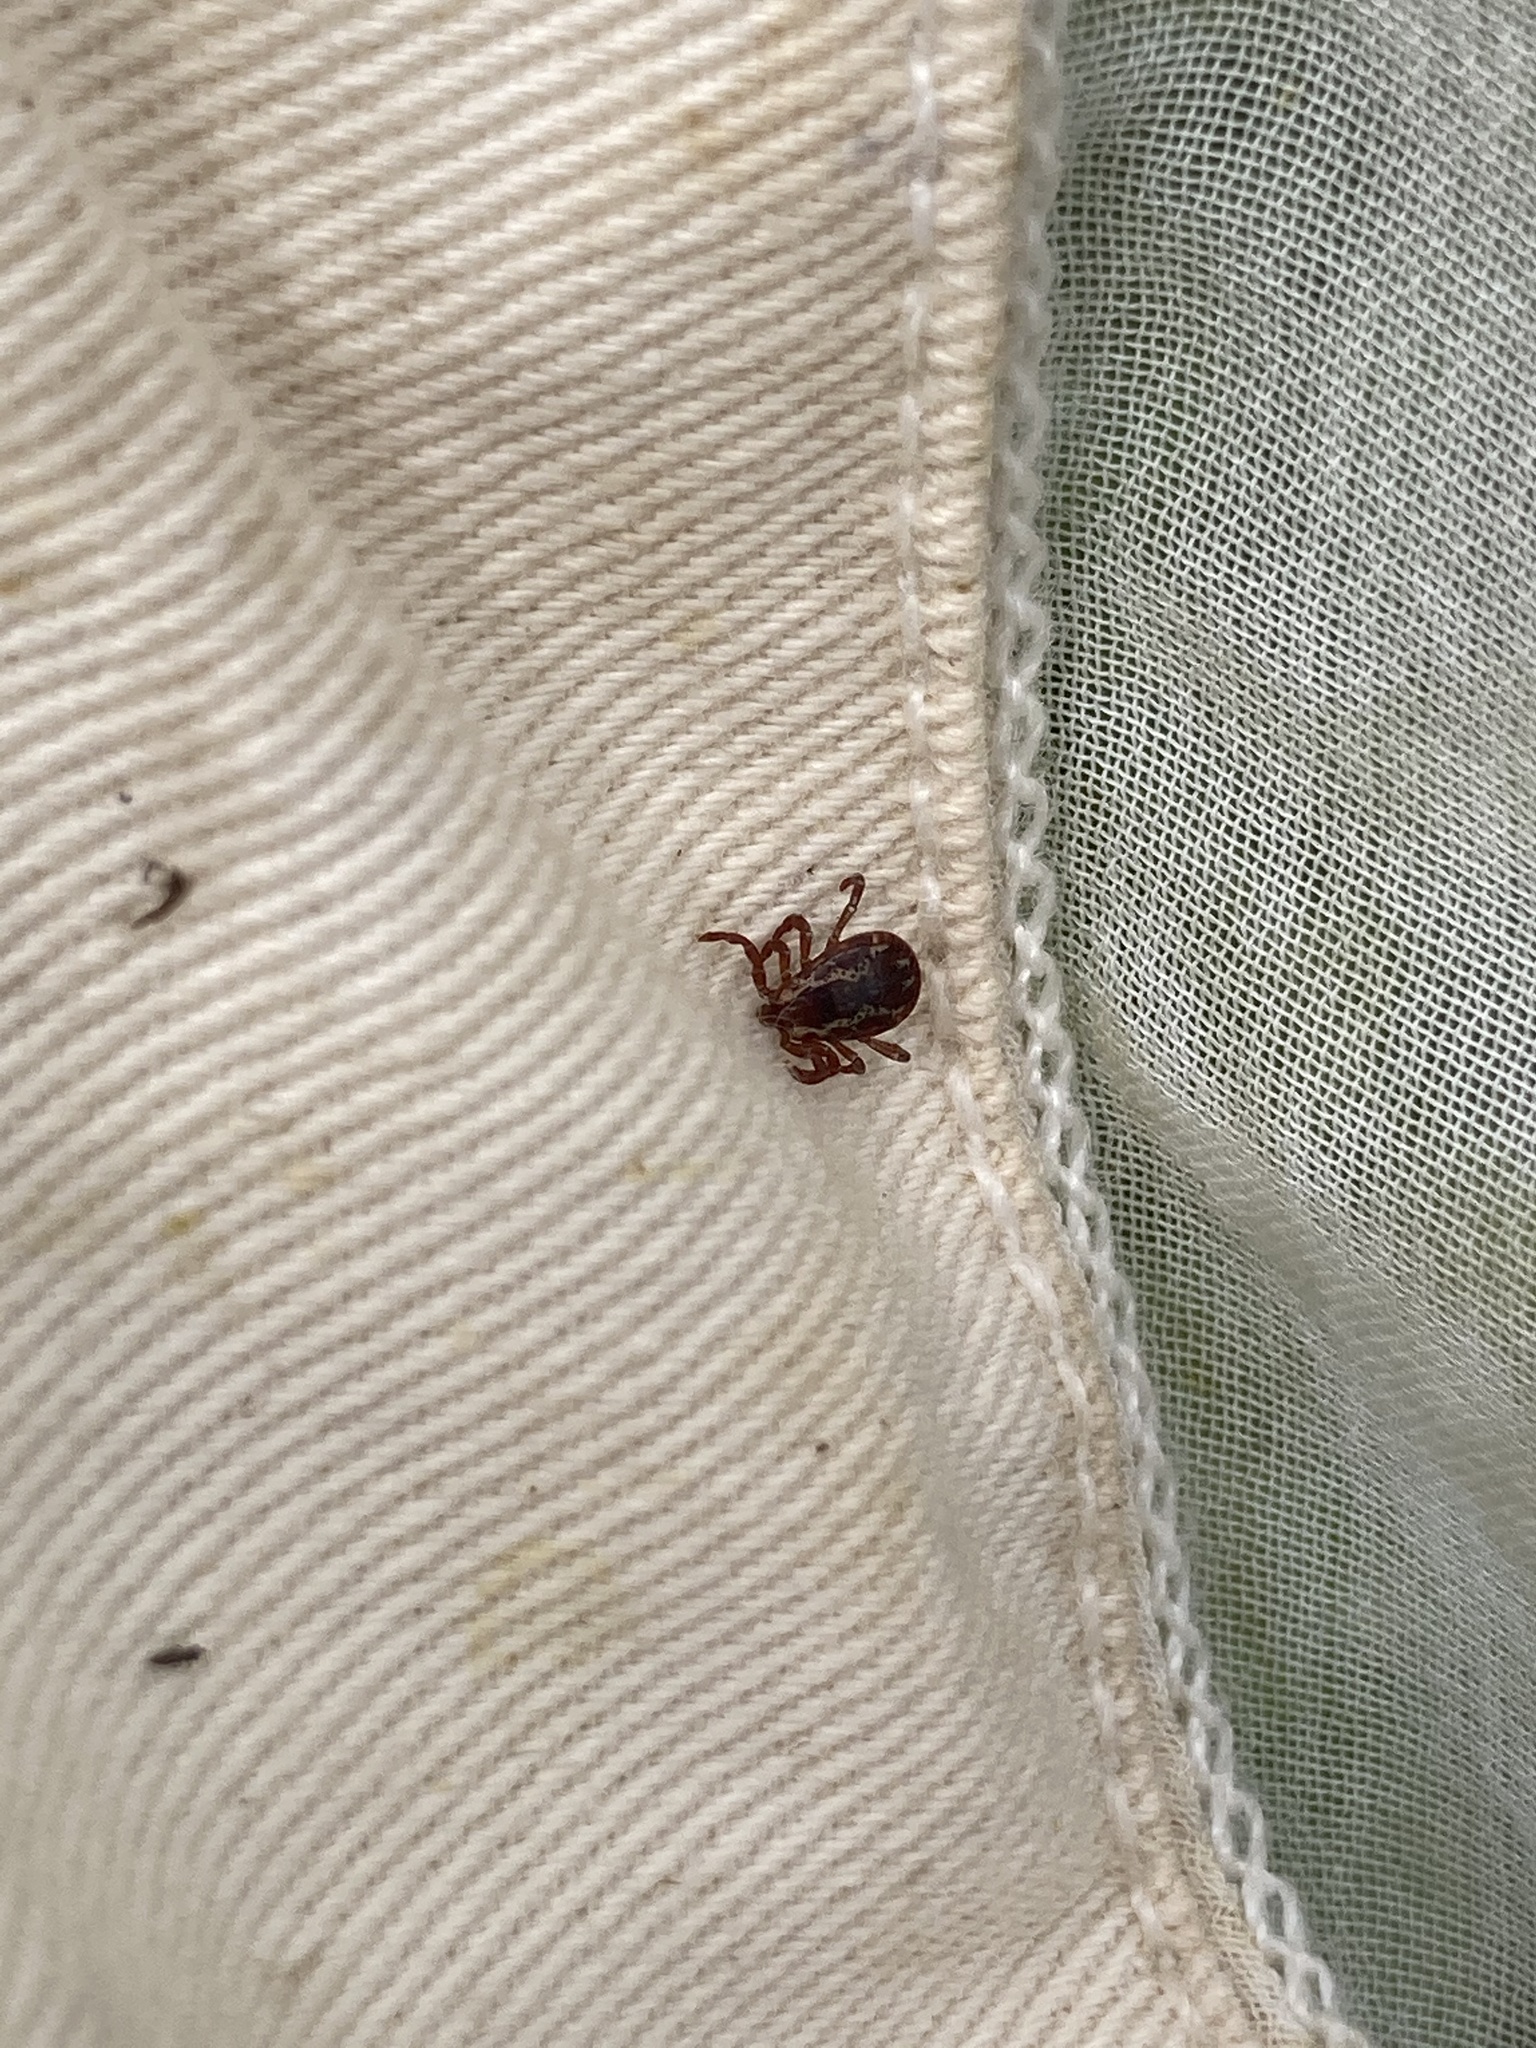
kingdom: Animalia
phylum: Arthropoda
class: Arachnida
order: Ixodida
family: Ixodidae
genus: Dermacentor
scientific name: Dermacentor variabilis
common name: American dog tick
